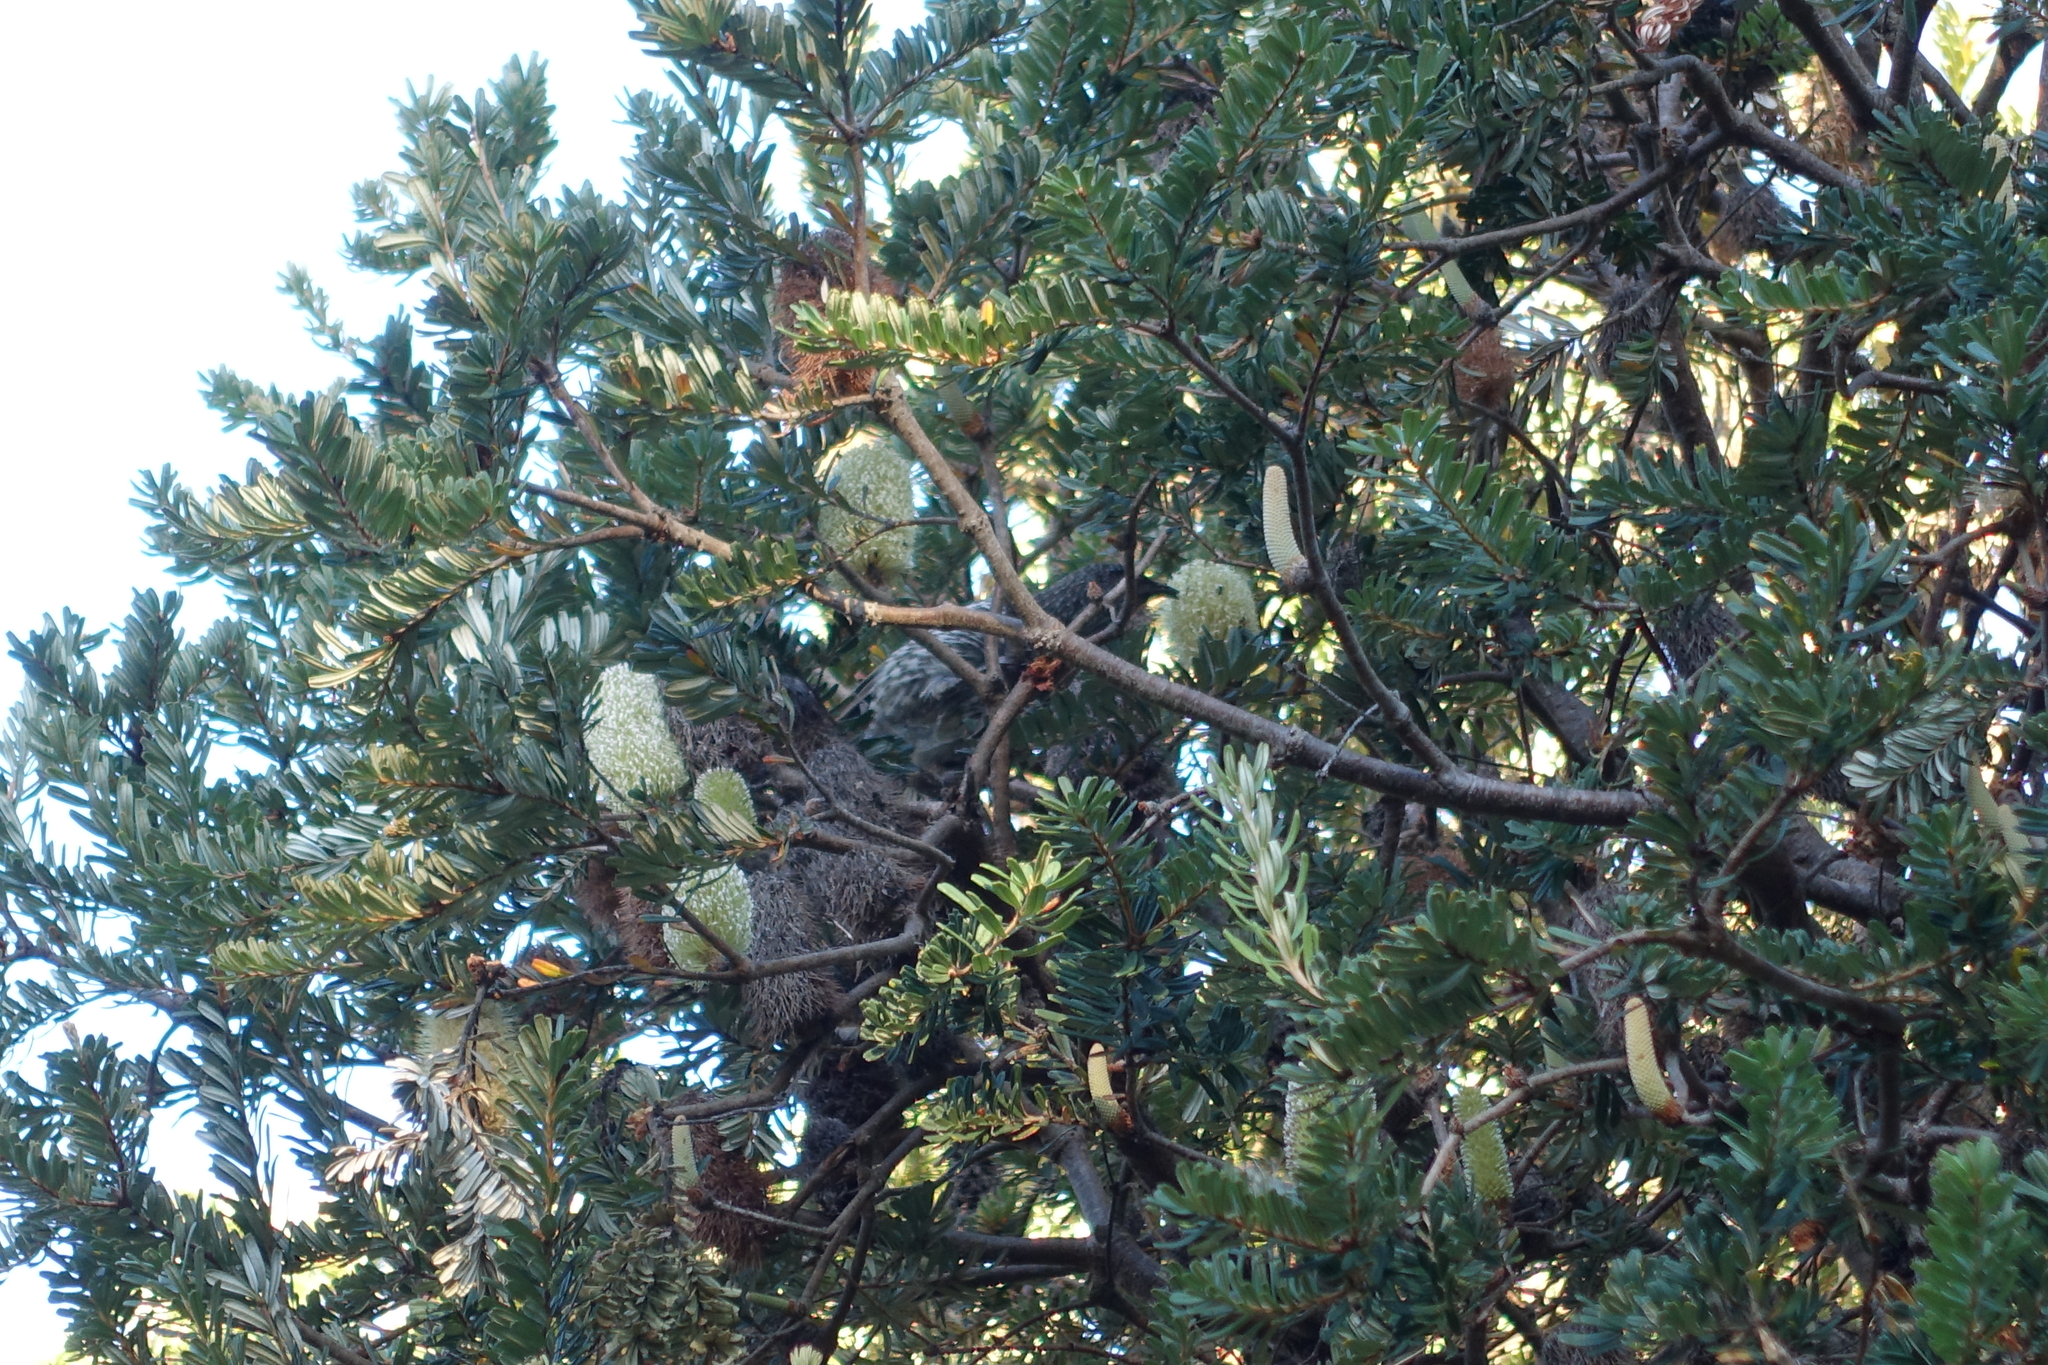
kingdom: Plantae
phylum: Tracheophyta
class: Magnoliopsida
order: Proteales
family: Proteaceae
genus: Banksia
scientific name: Banksia marginata
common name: Silver banksia
